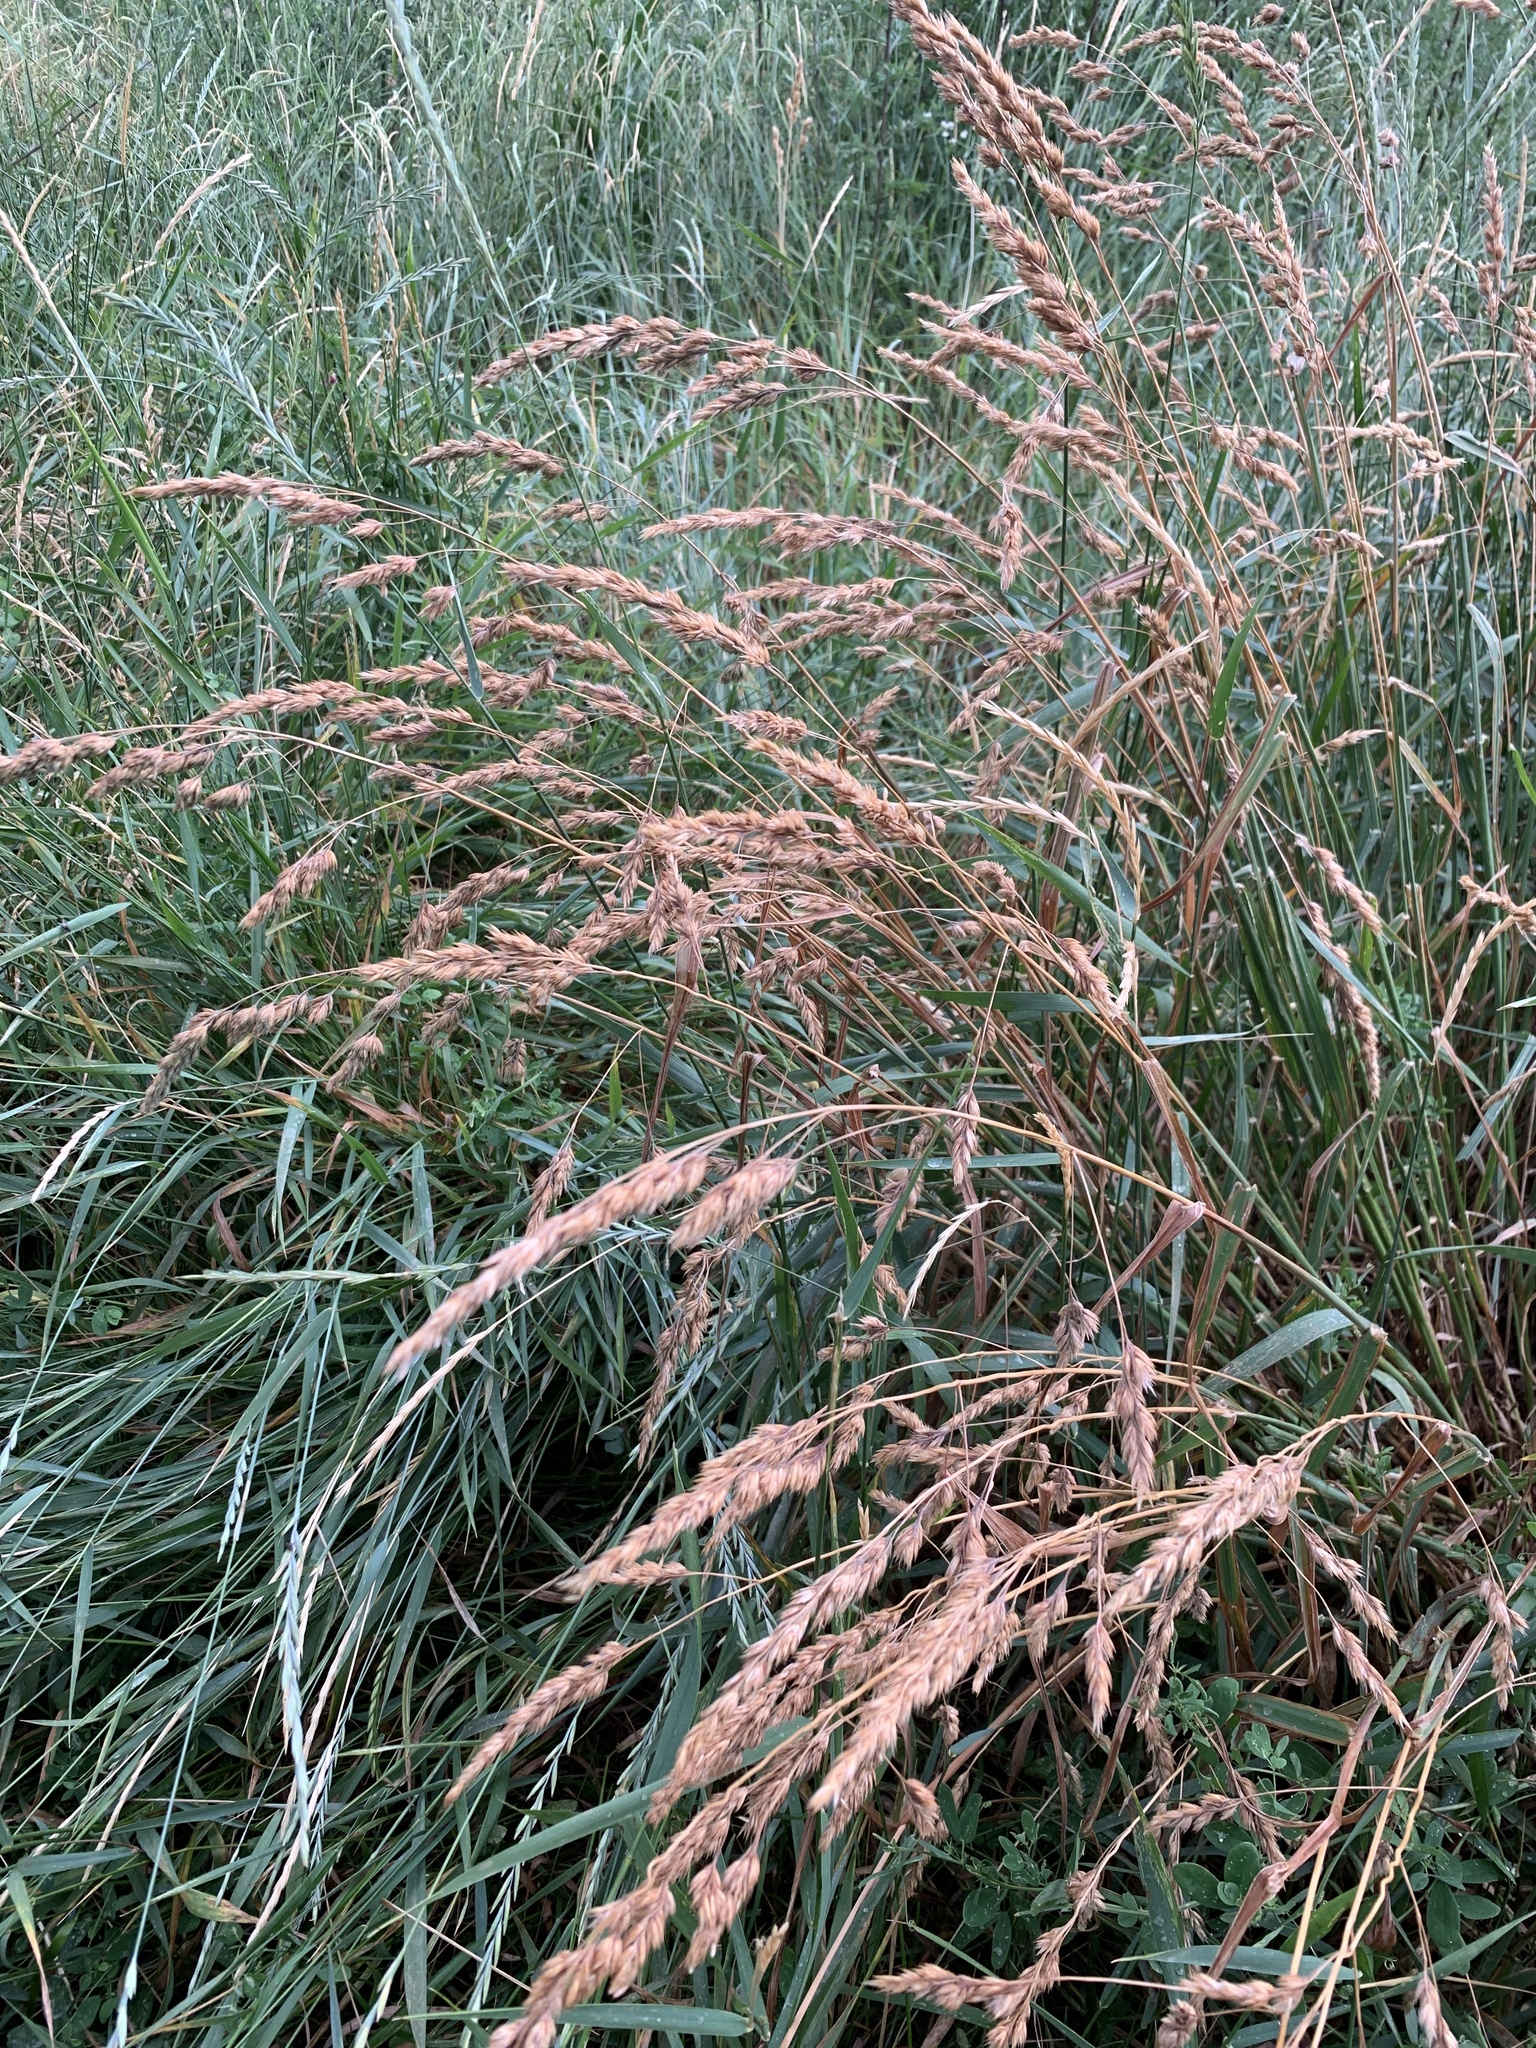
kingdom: Plantae
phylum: Tracheophyta
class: Liliopsida
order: Poales
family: Poaceae
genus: Dactylis
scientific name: Dactylis glomerata
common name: Orchardgrass
